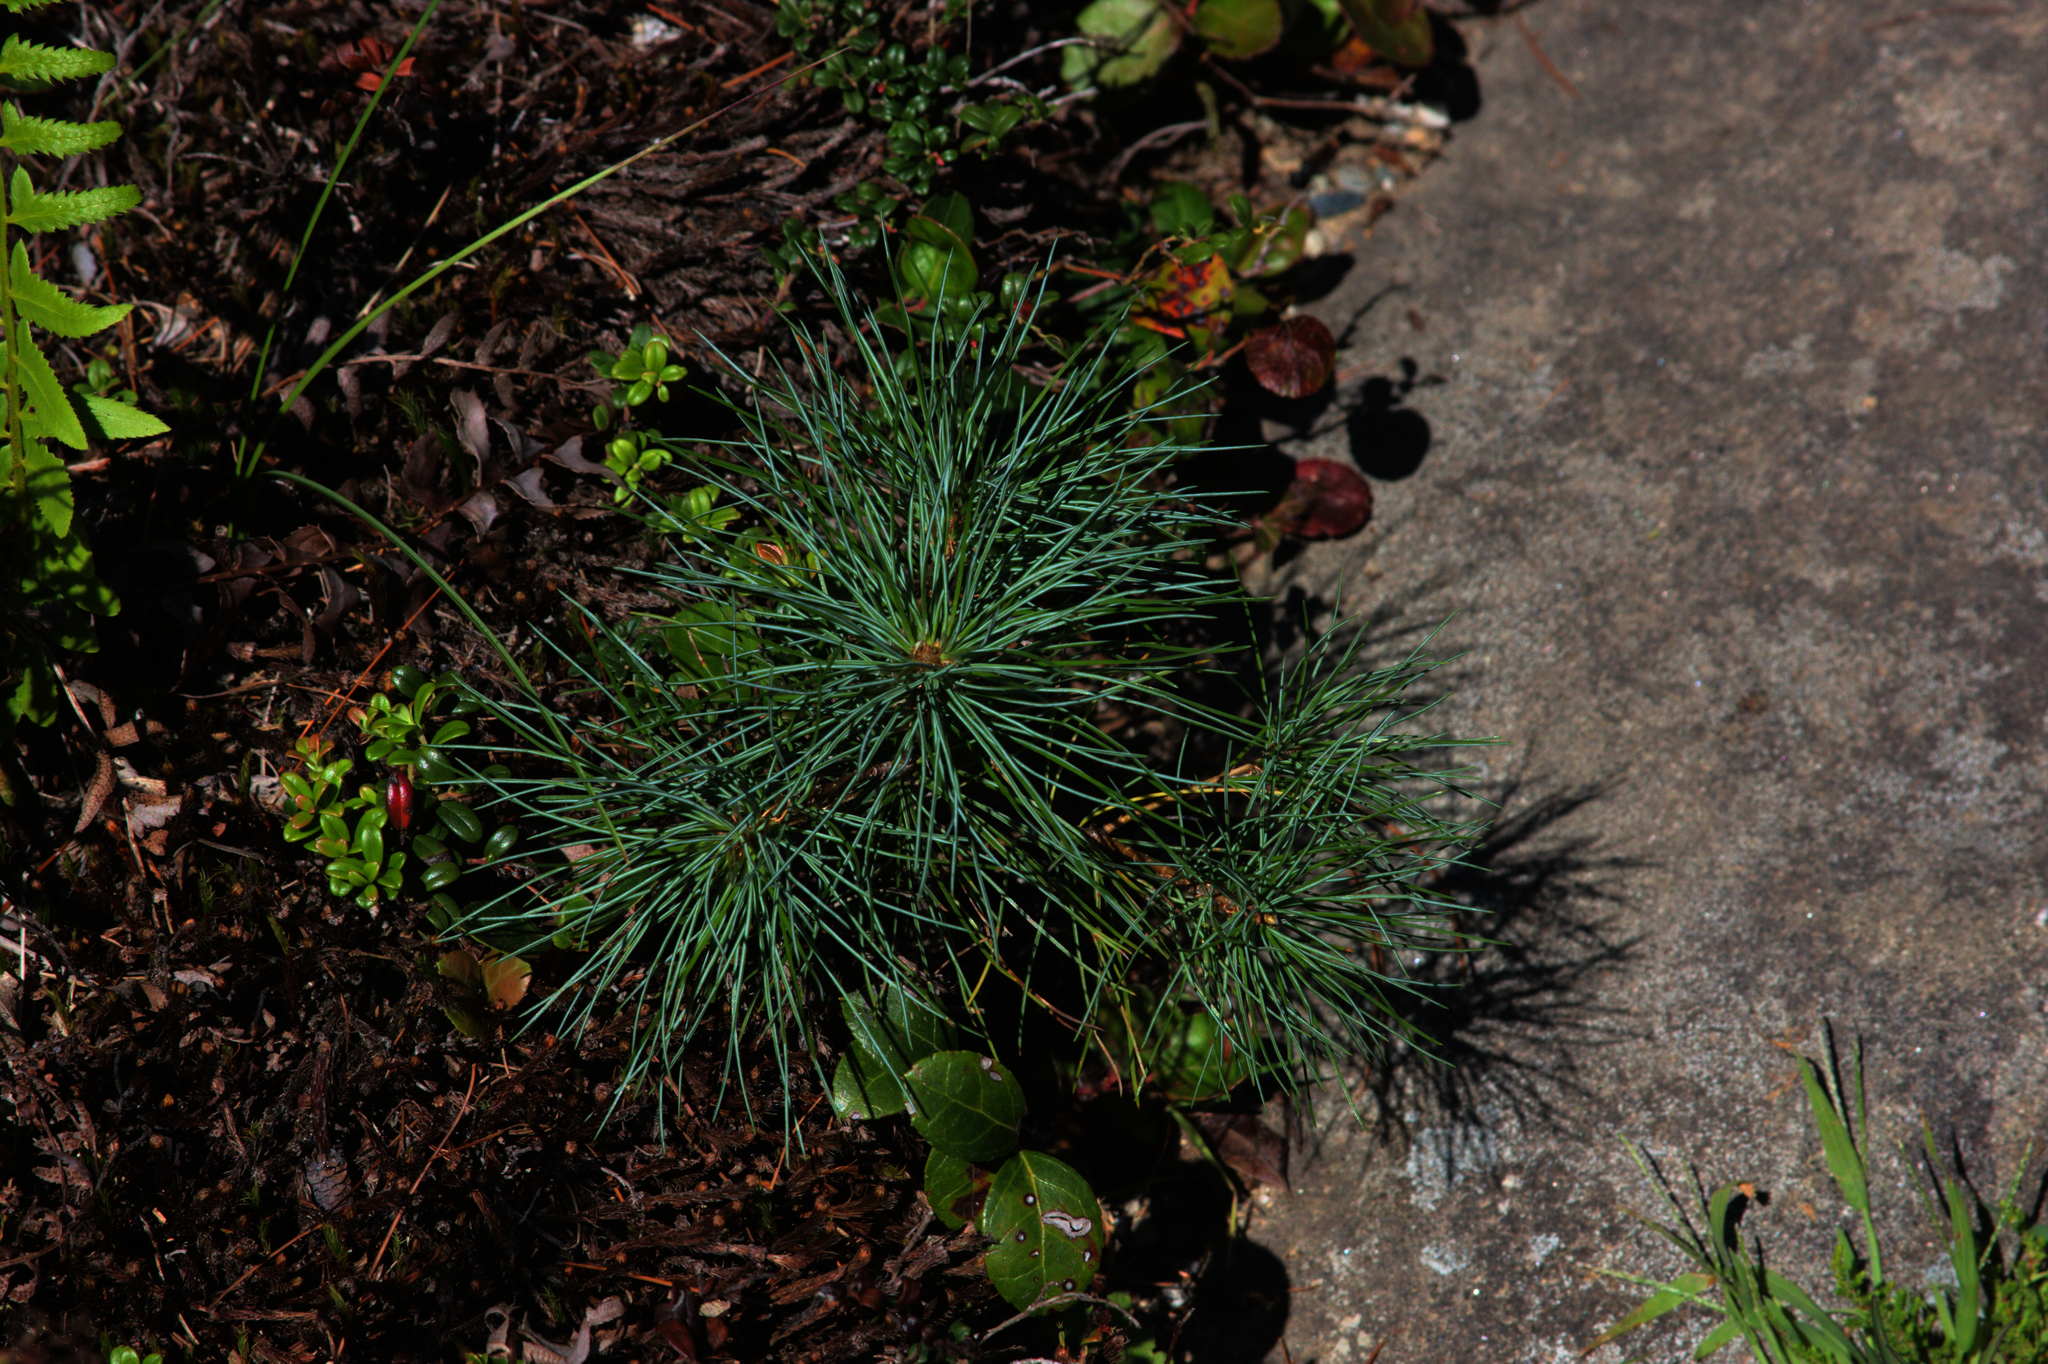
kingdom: Plantae
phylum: Tracheophyta
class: Pinopsida
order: Pinales
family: Pinaceae
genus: Pinus
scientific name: Pinus strobus
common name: Weymouth pine
